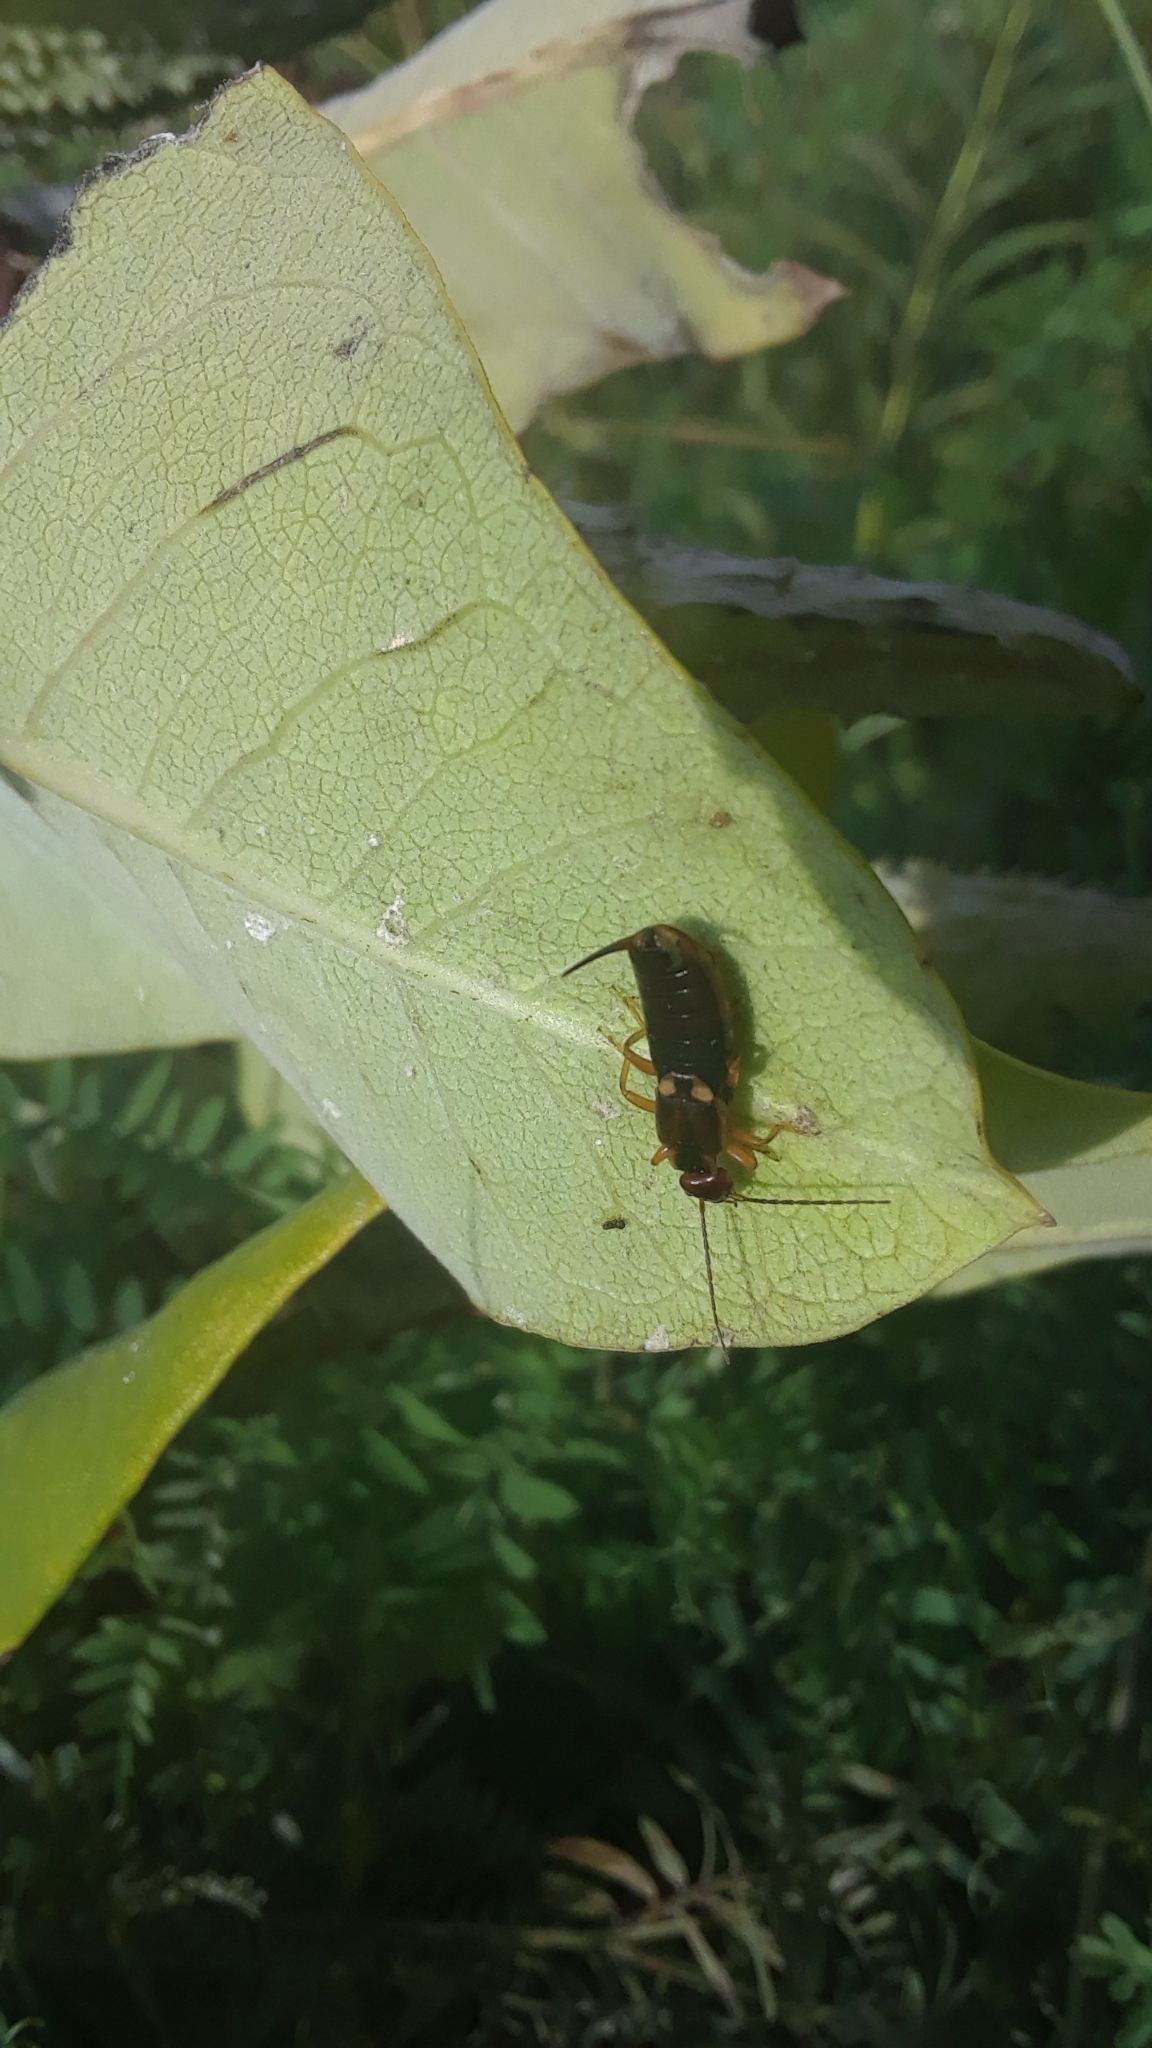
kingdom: Animalia
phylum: Arthropoda
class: Insecta
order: Dermaptera
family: Forficulidae
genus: Forficula
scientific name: Forficula
